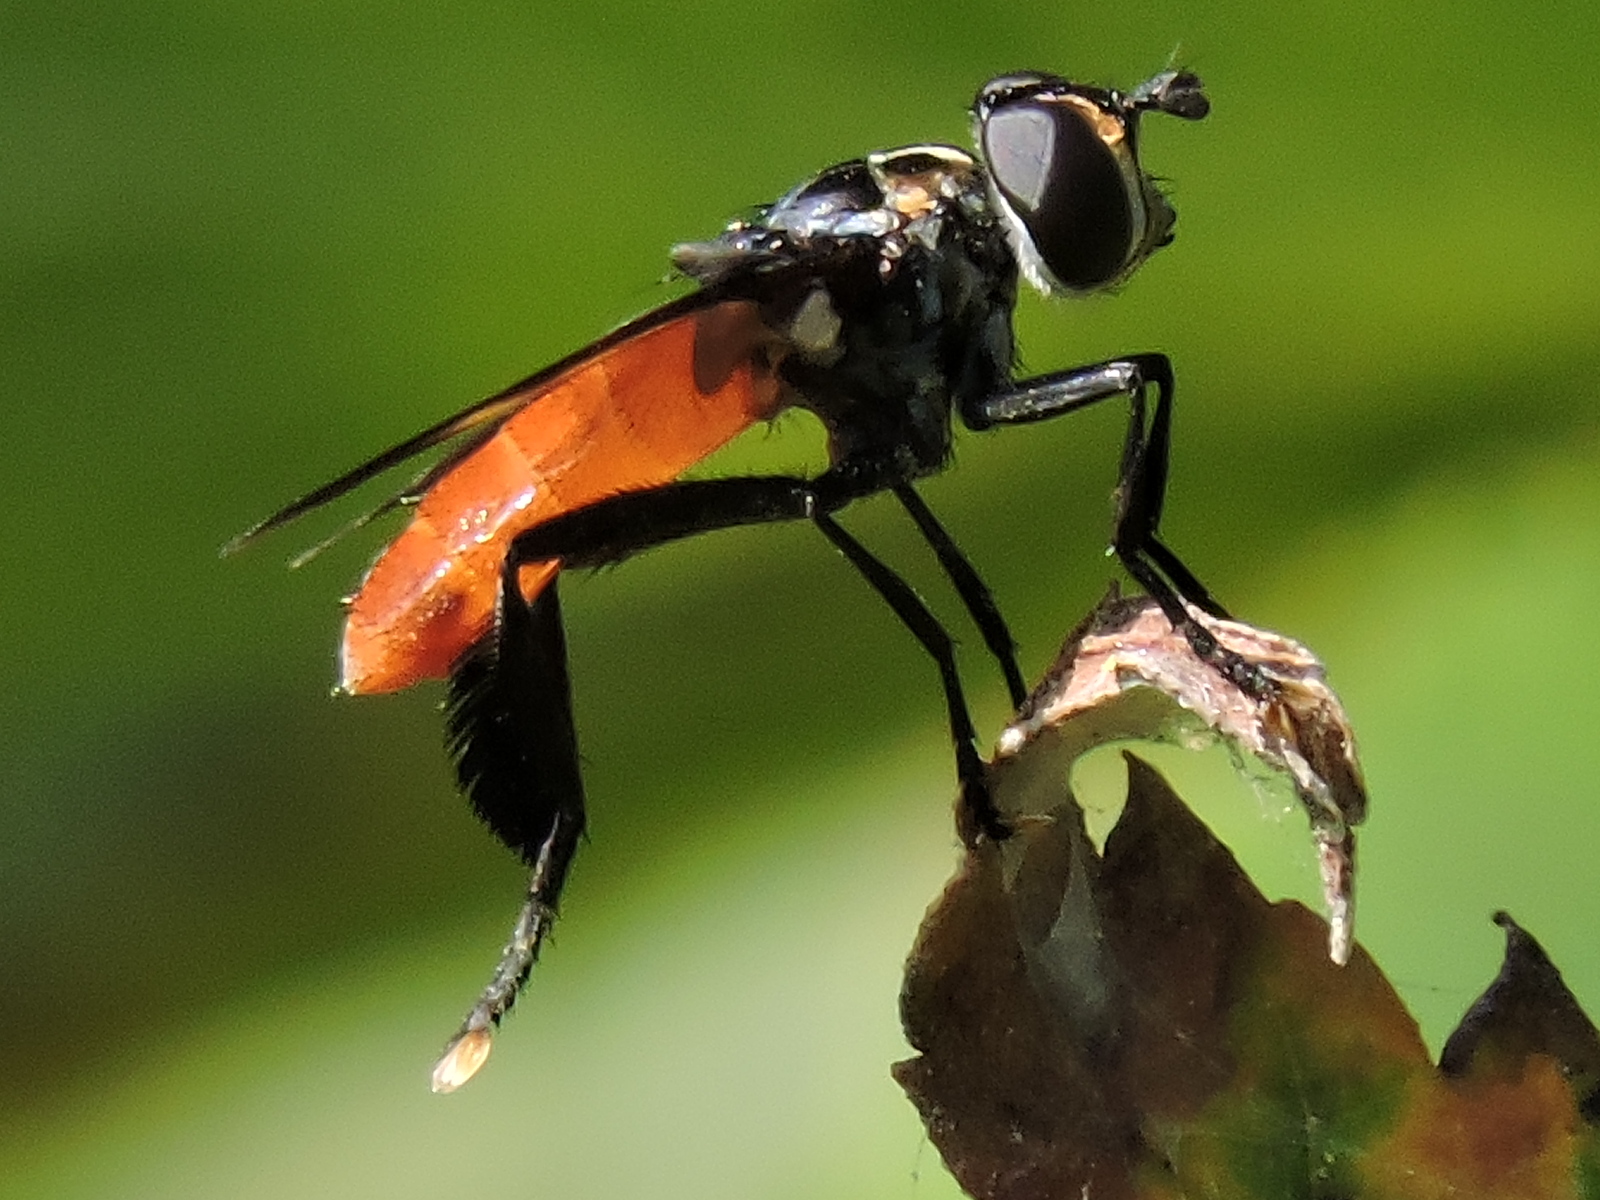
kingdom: Animalia
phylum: Arthropoda
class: Insecta
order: Diptera
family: Tachinidae
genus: Trichopoda
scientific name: Trichopoda pennipes
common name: Tachinid fly
